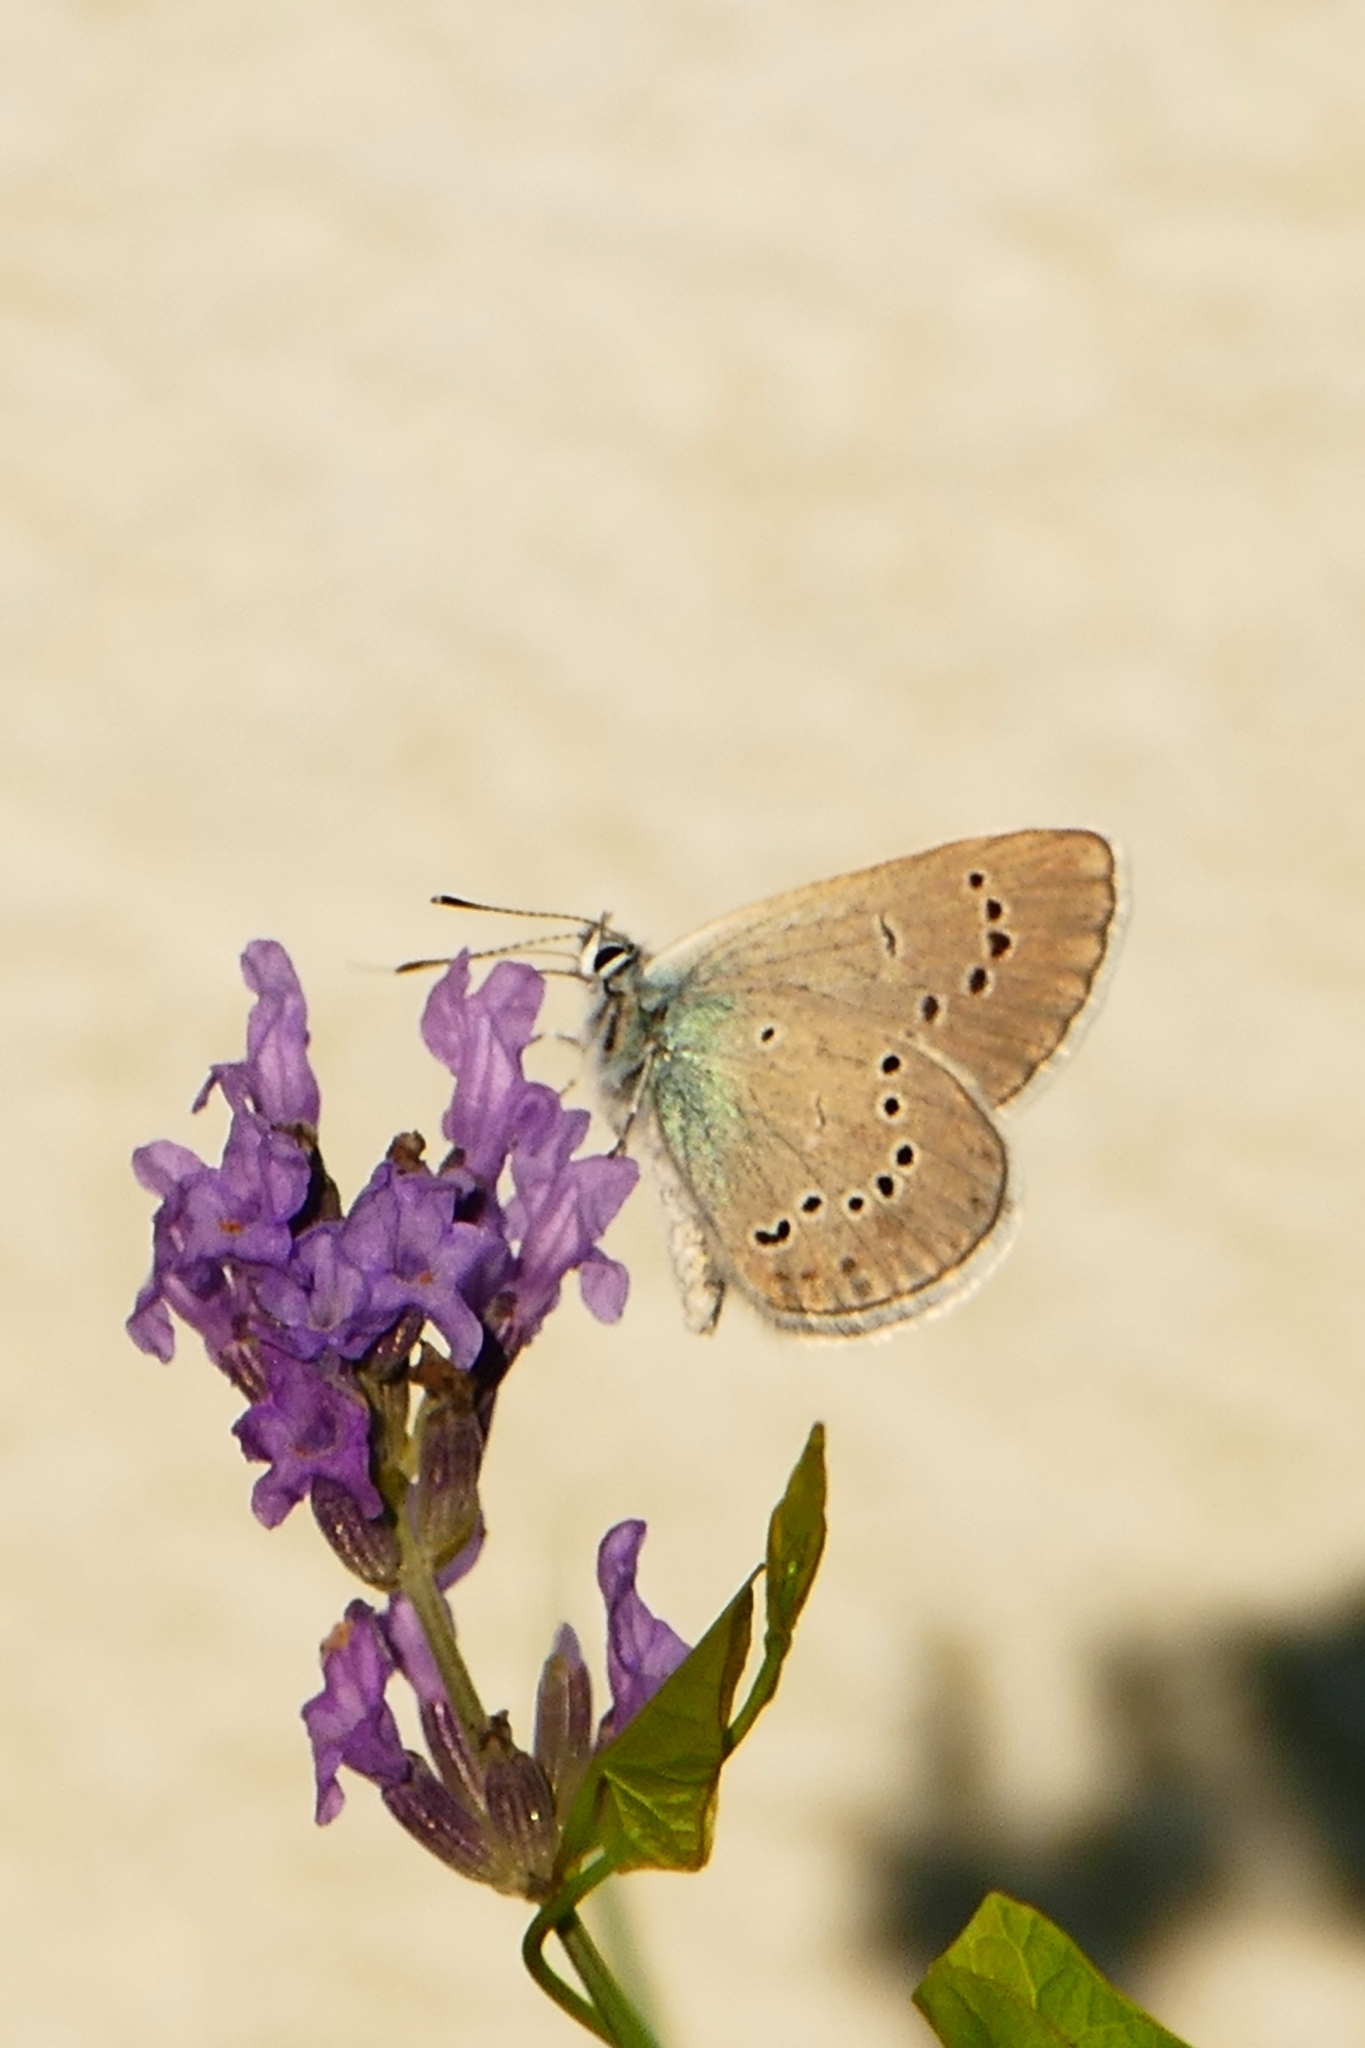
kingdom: Animalia
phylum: Arthropoda
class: Insecta
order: Lepidoptera
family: Lycaenidae
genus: Cyaniris
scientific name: Cyaniris semiargus
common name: Mazarine blue
